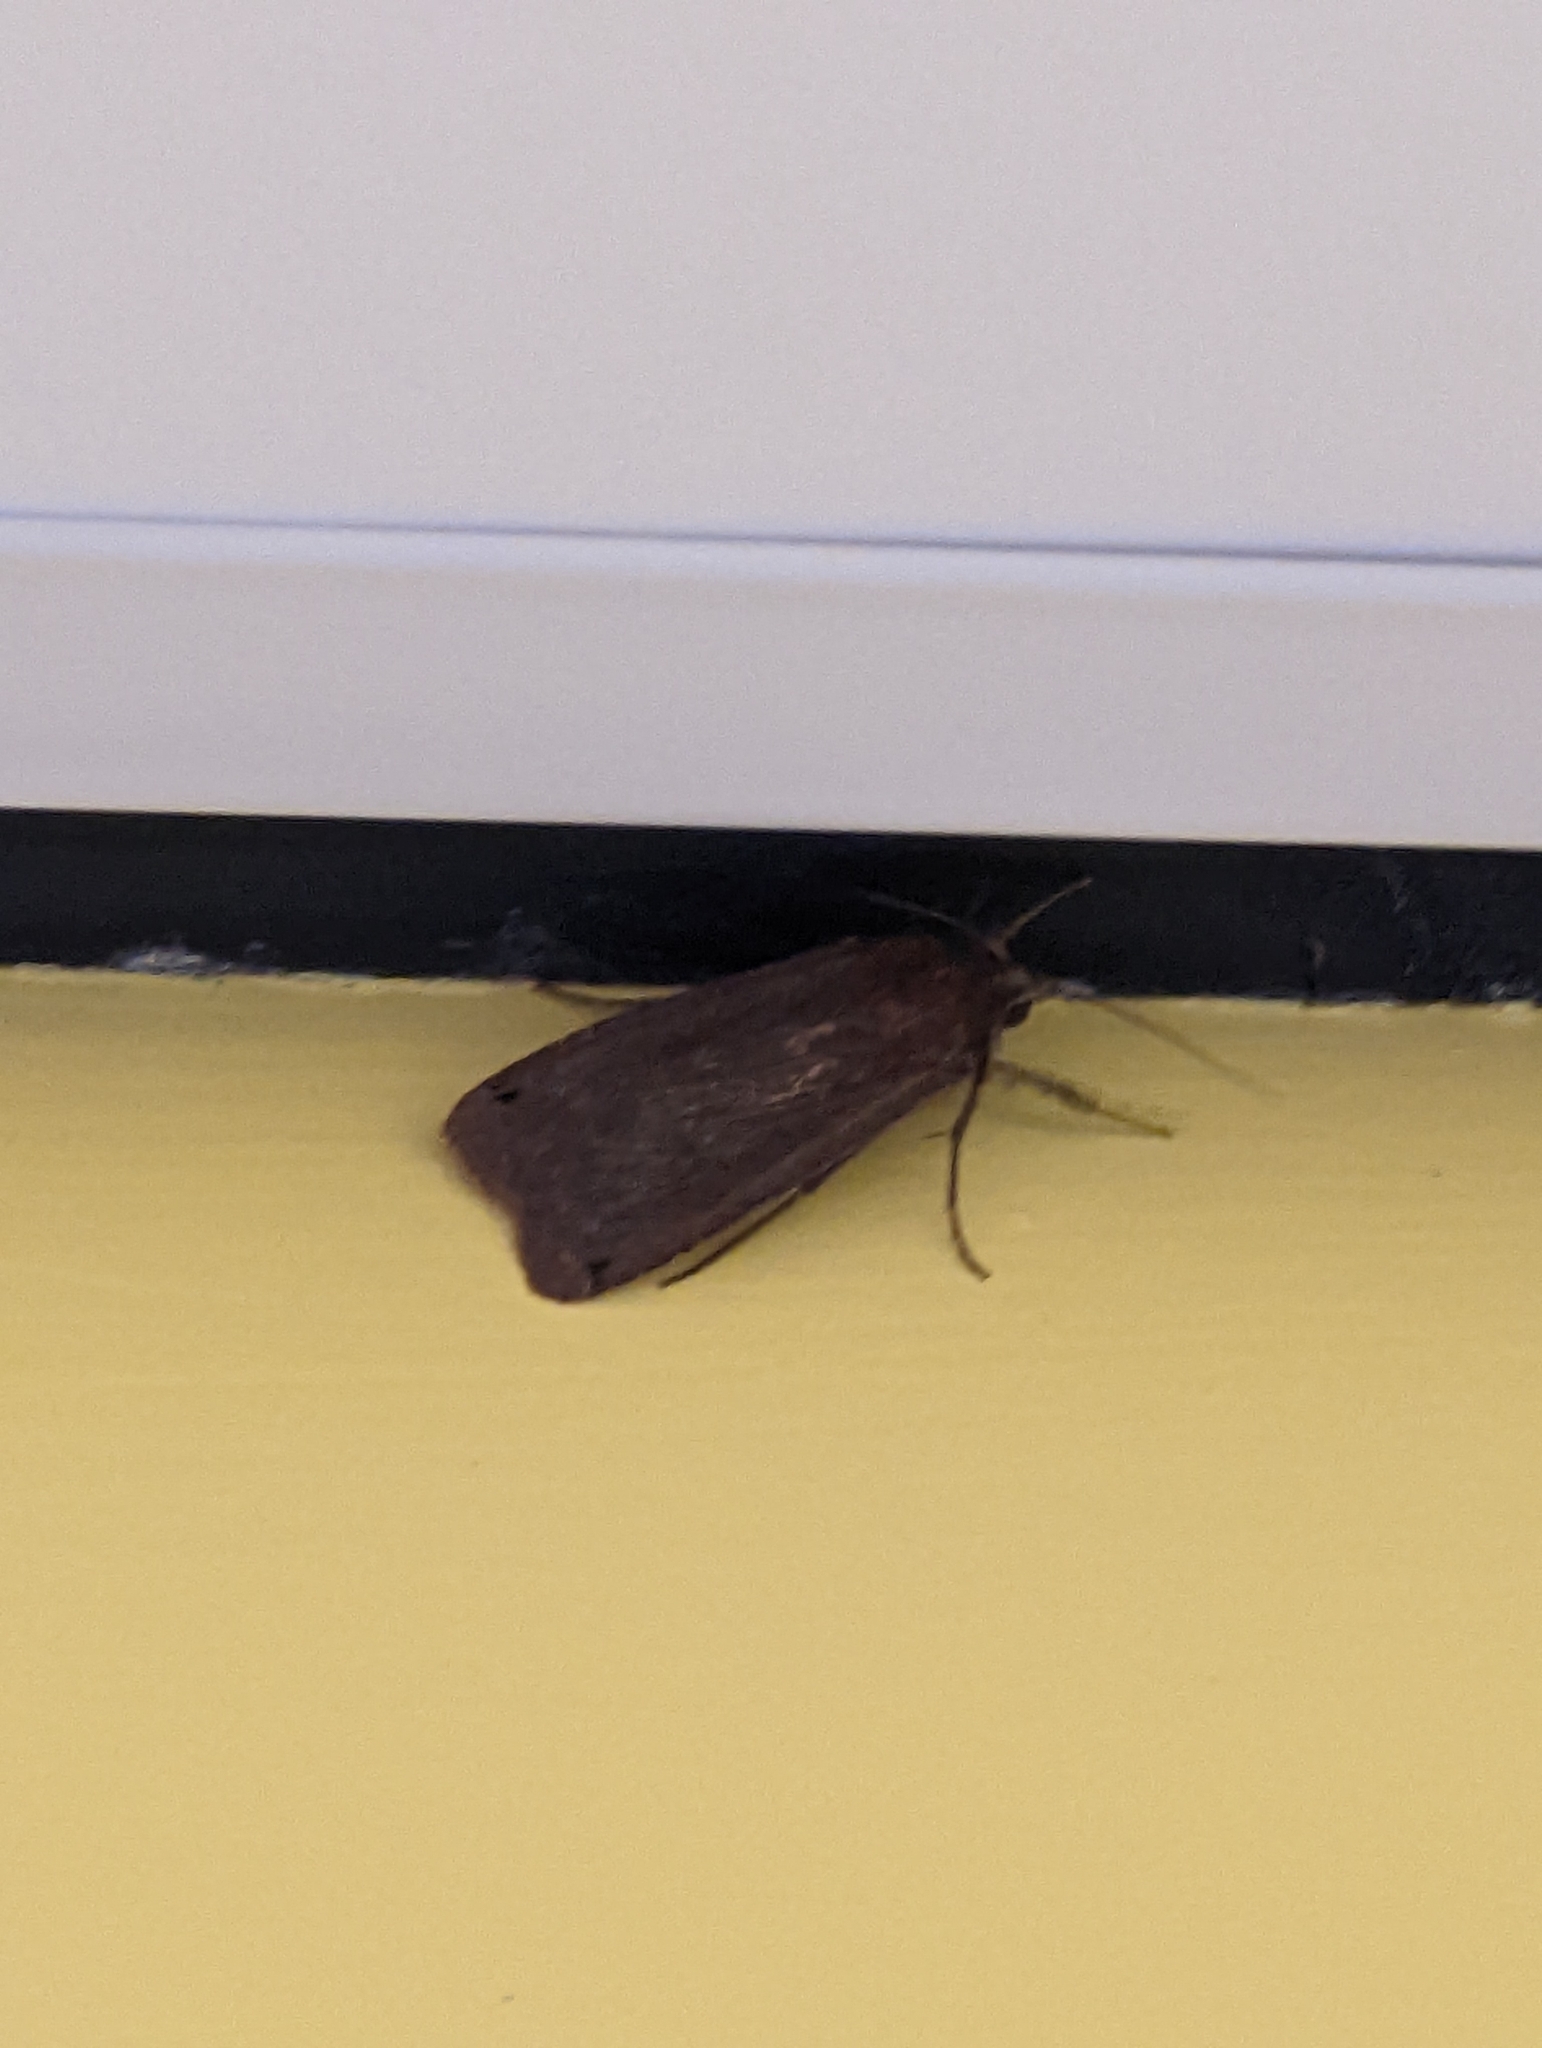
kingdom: Animalia
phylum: Arthropoda
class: Insecta
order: Lepidoptera
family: Noctuidae
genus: Noctua
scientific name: Noctua pronuba
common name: Large yellow underwing
